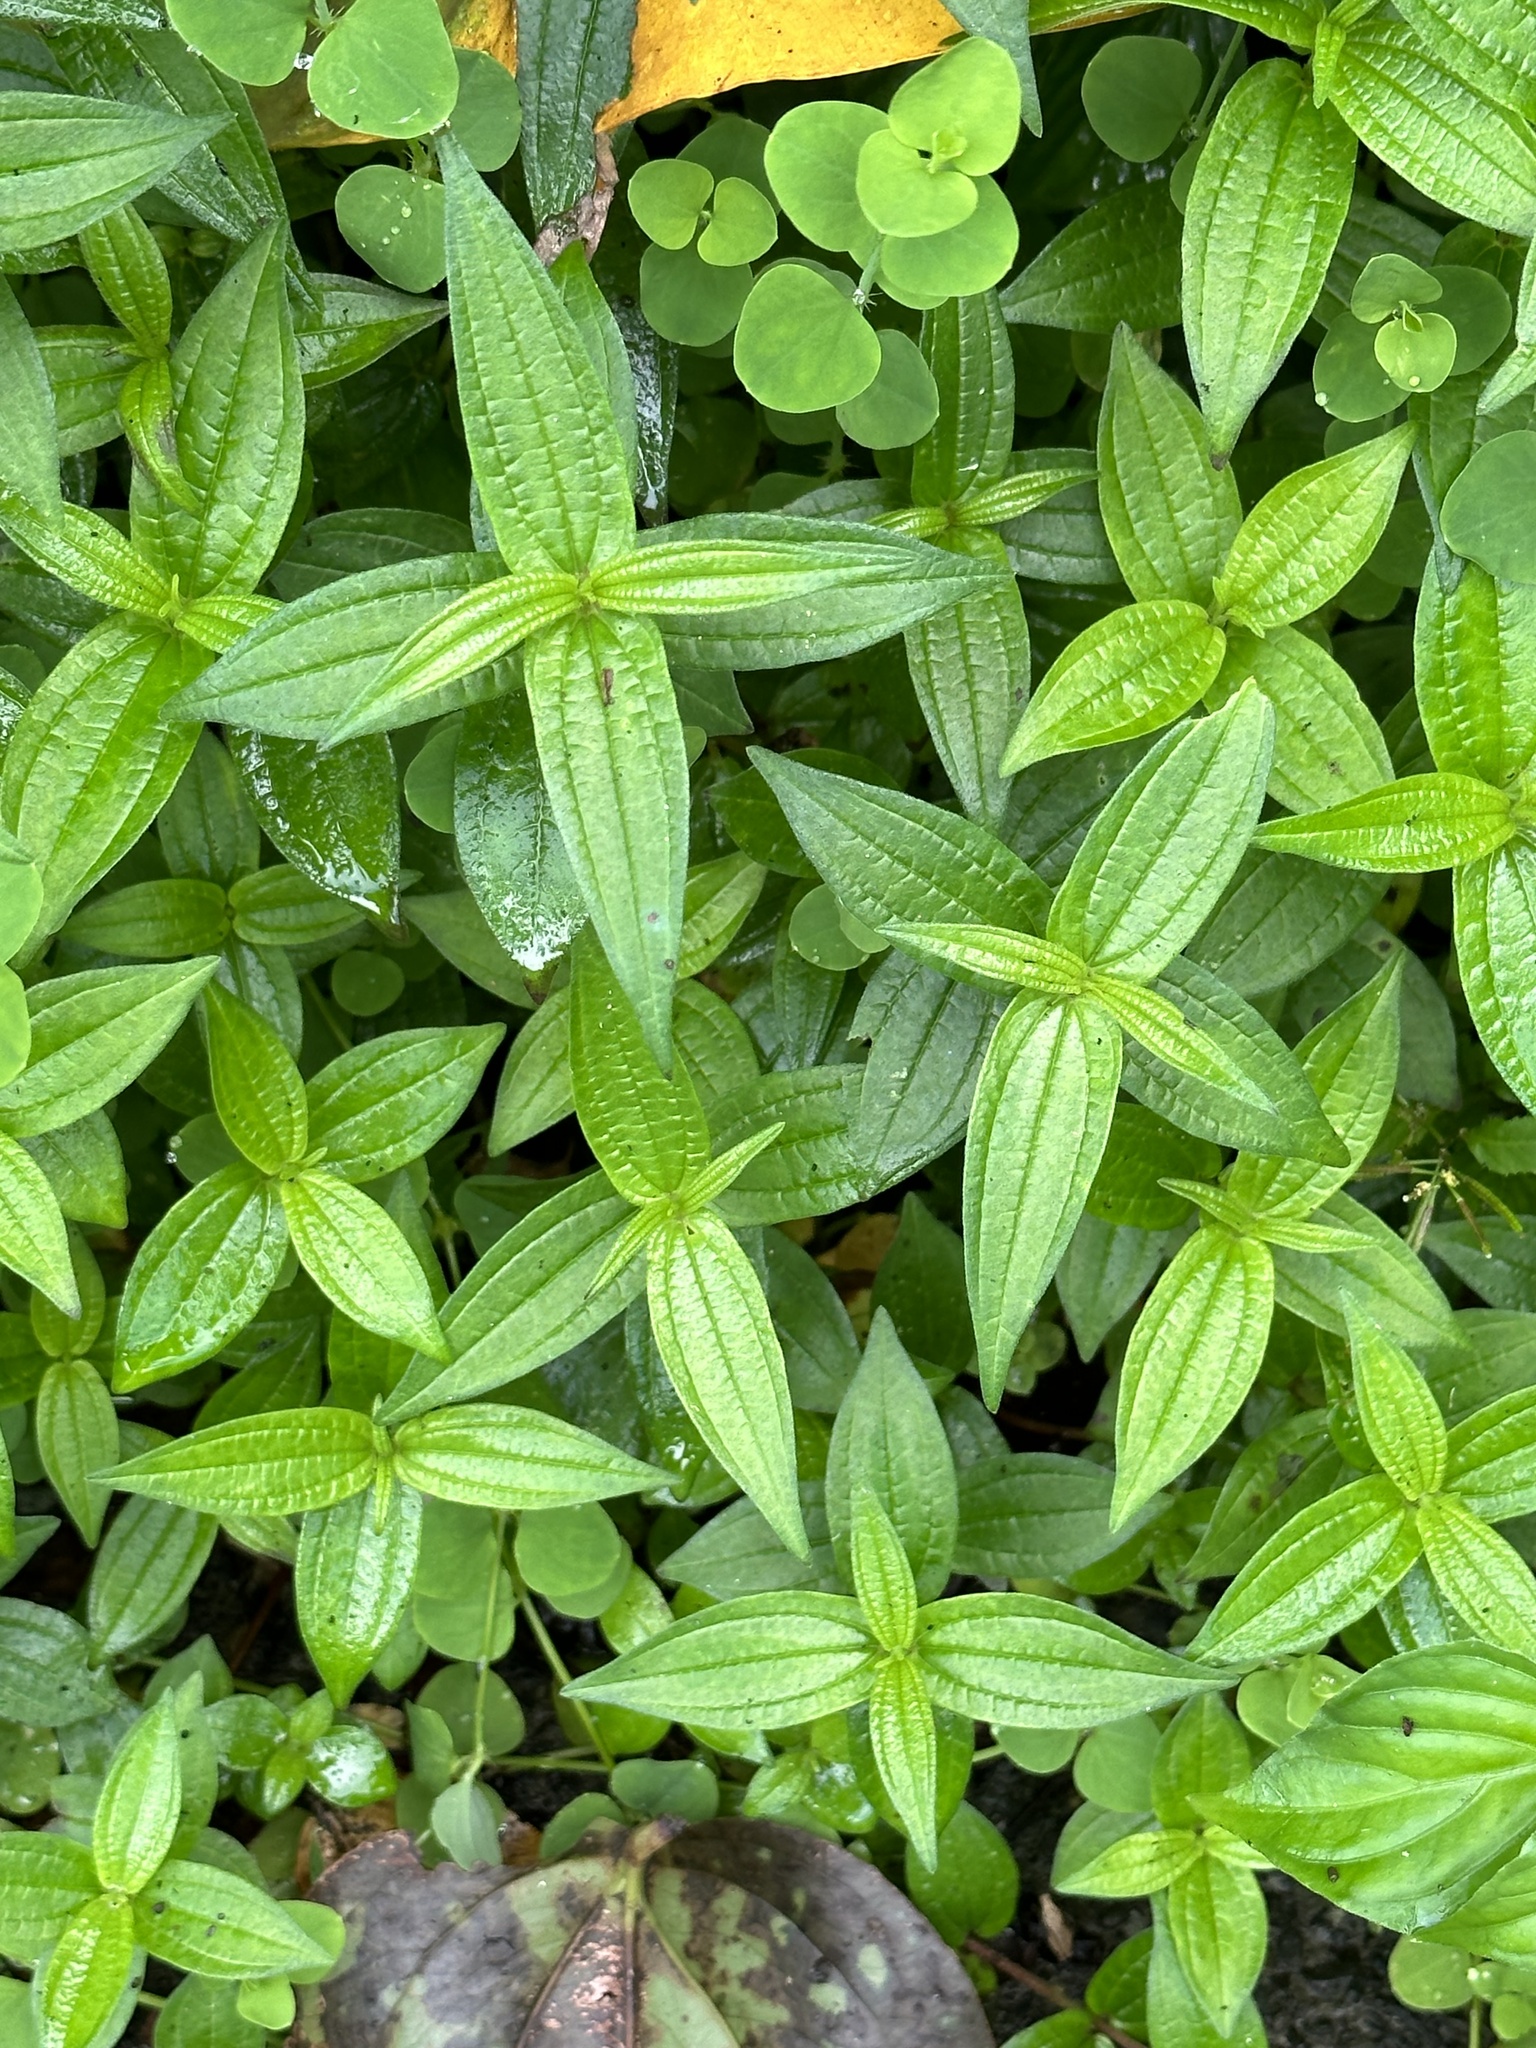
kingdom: Plantae
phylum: Tracheophyta
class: Magnoliopsida
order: Rosales
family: Urticaceae
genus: Gonostegia
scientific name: Gonostegia triandra
